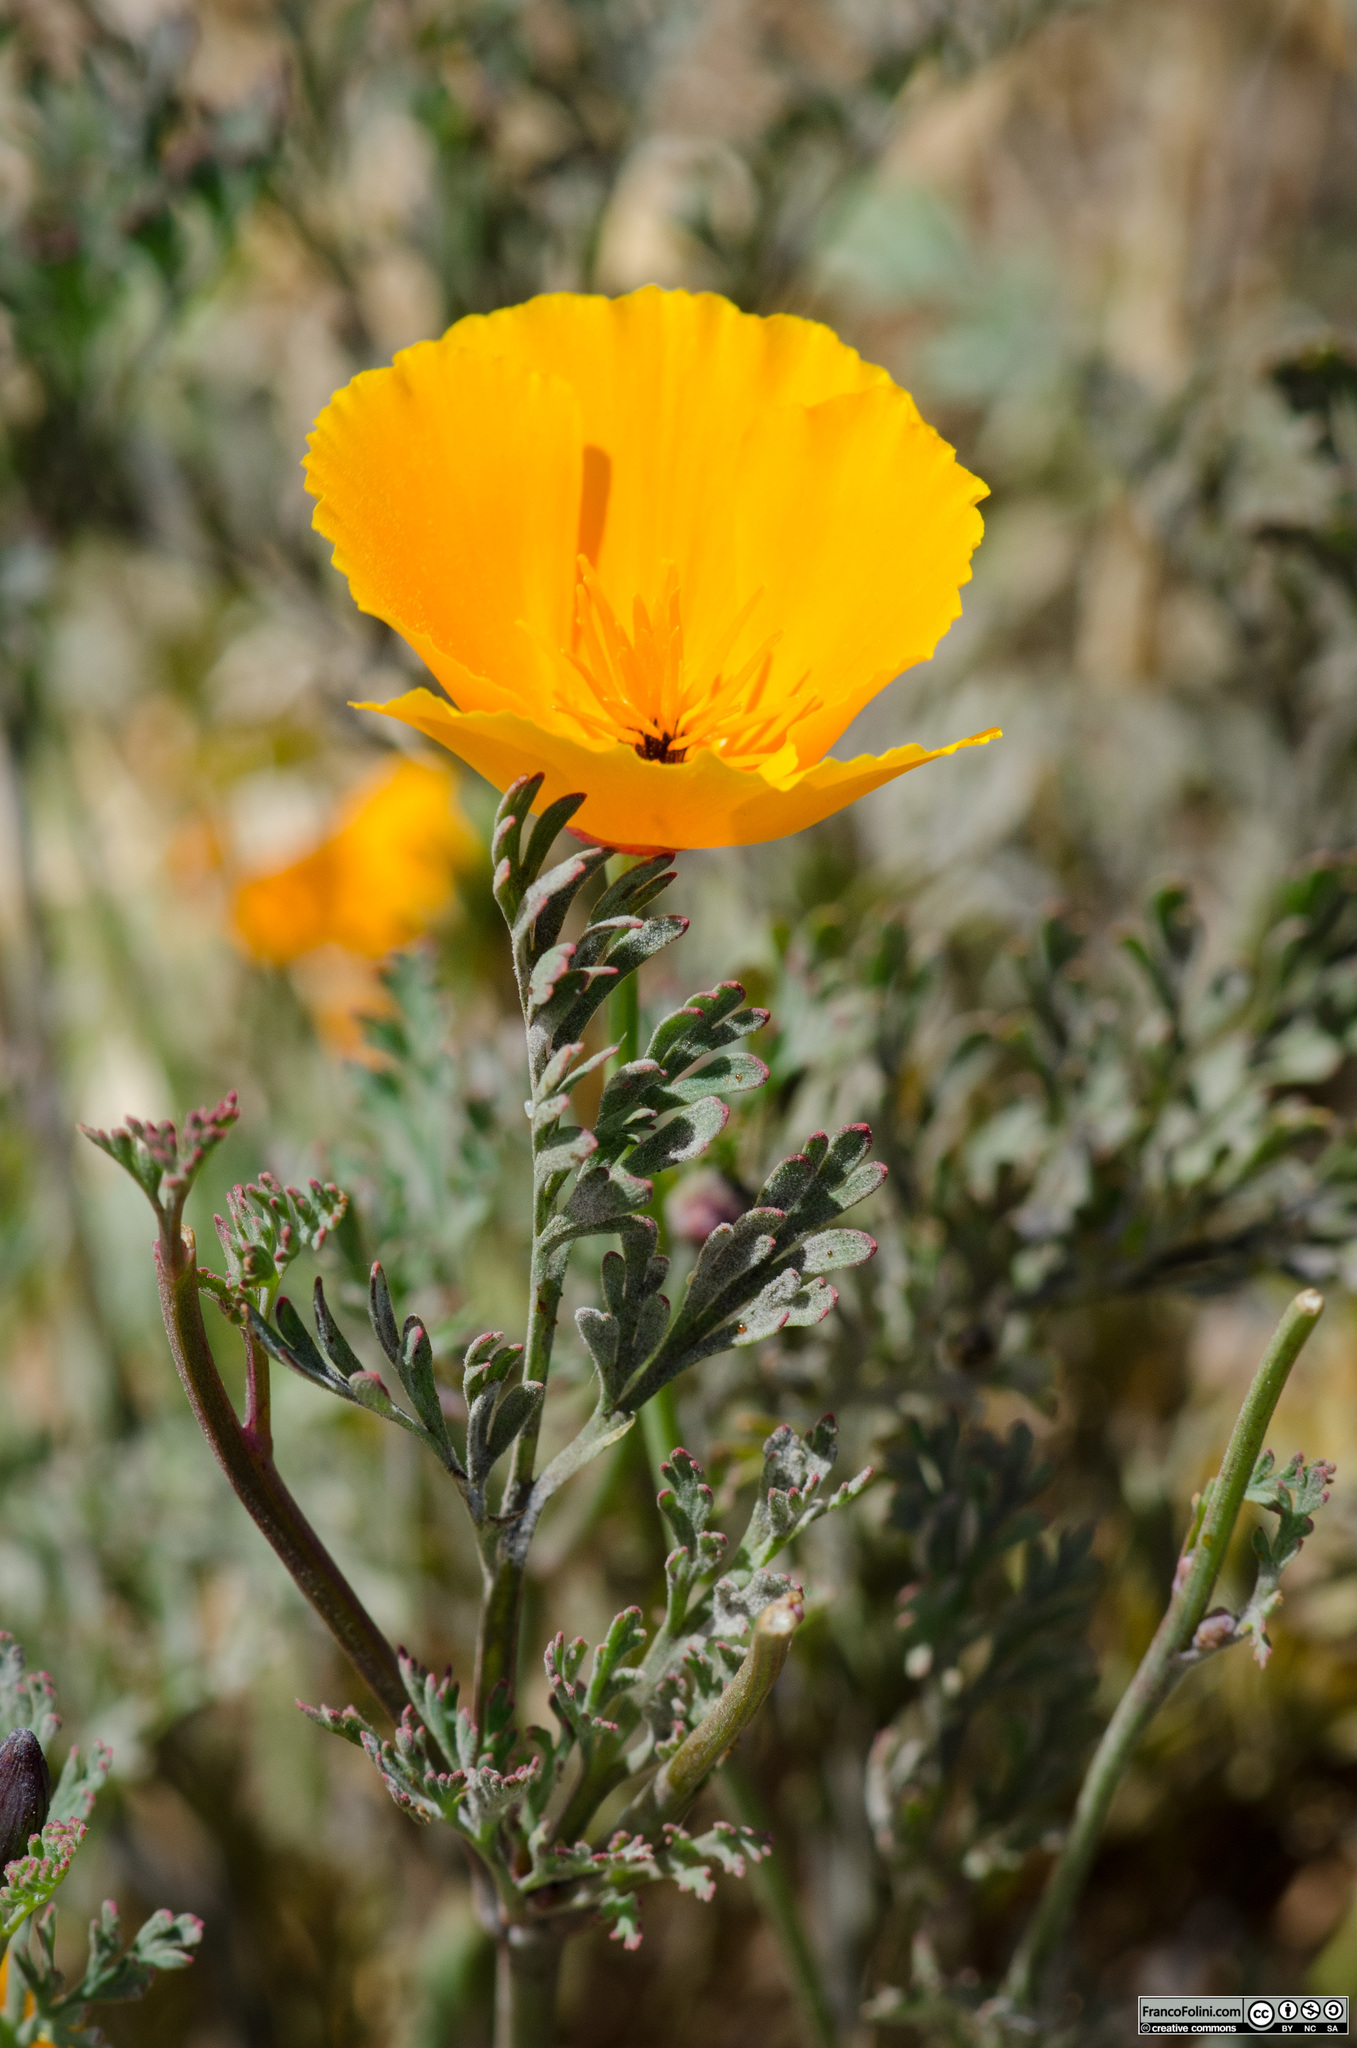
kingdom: Plantae
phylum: Tracheophyta
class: Magnoliopsida
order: Ranunculales
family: Papaveraceae
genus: Eschscholzia
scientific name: Eschscholzia californica
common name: California poppy
